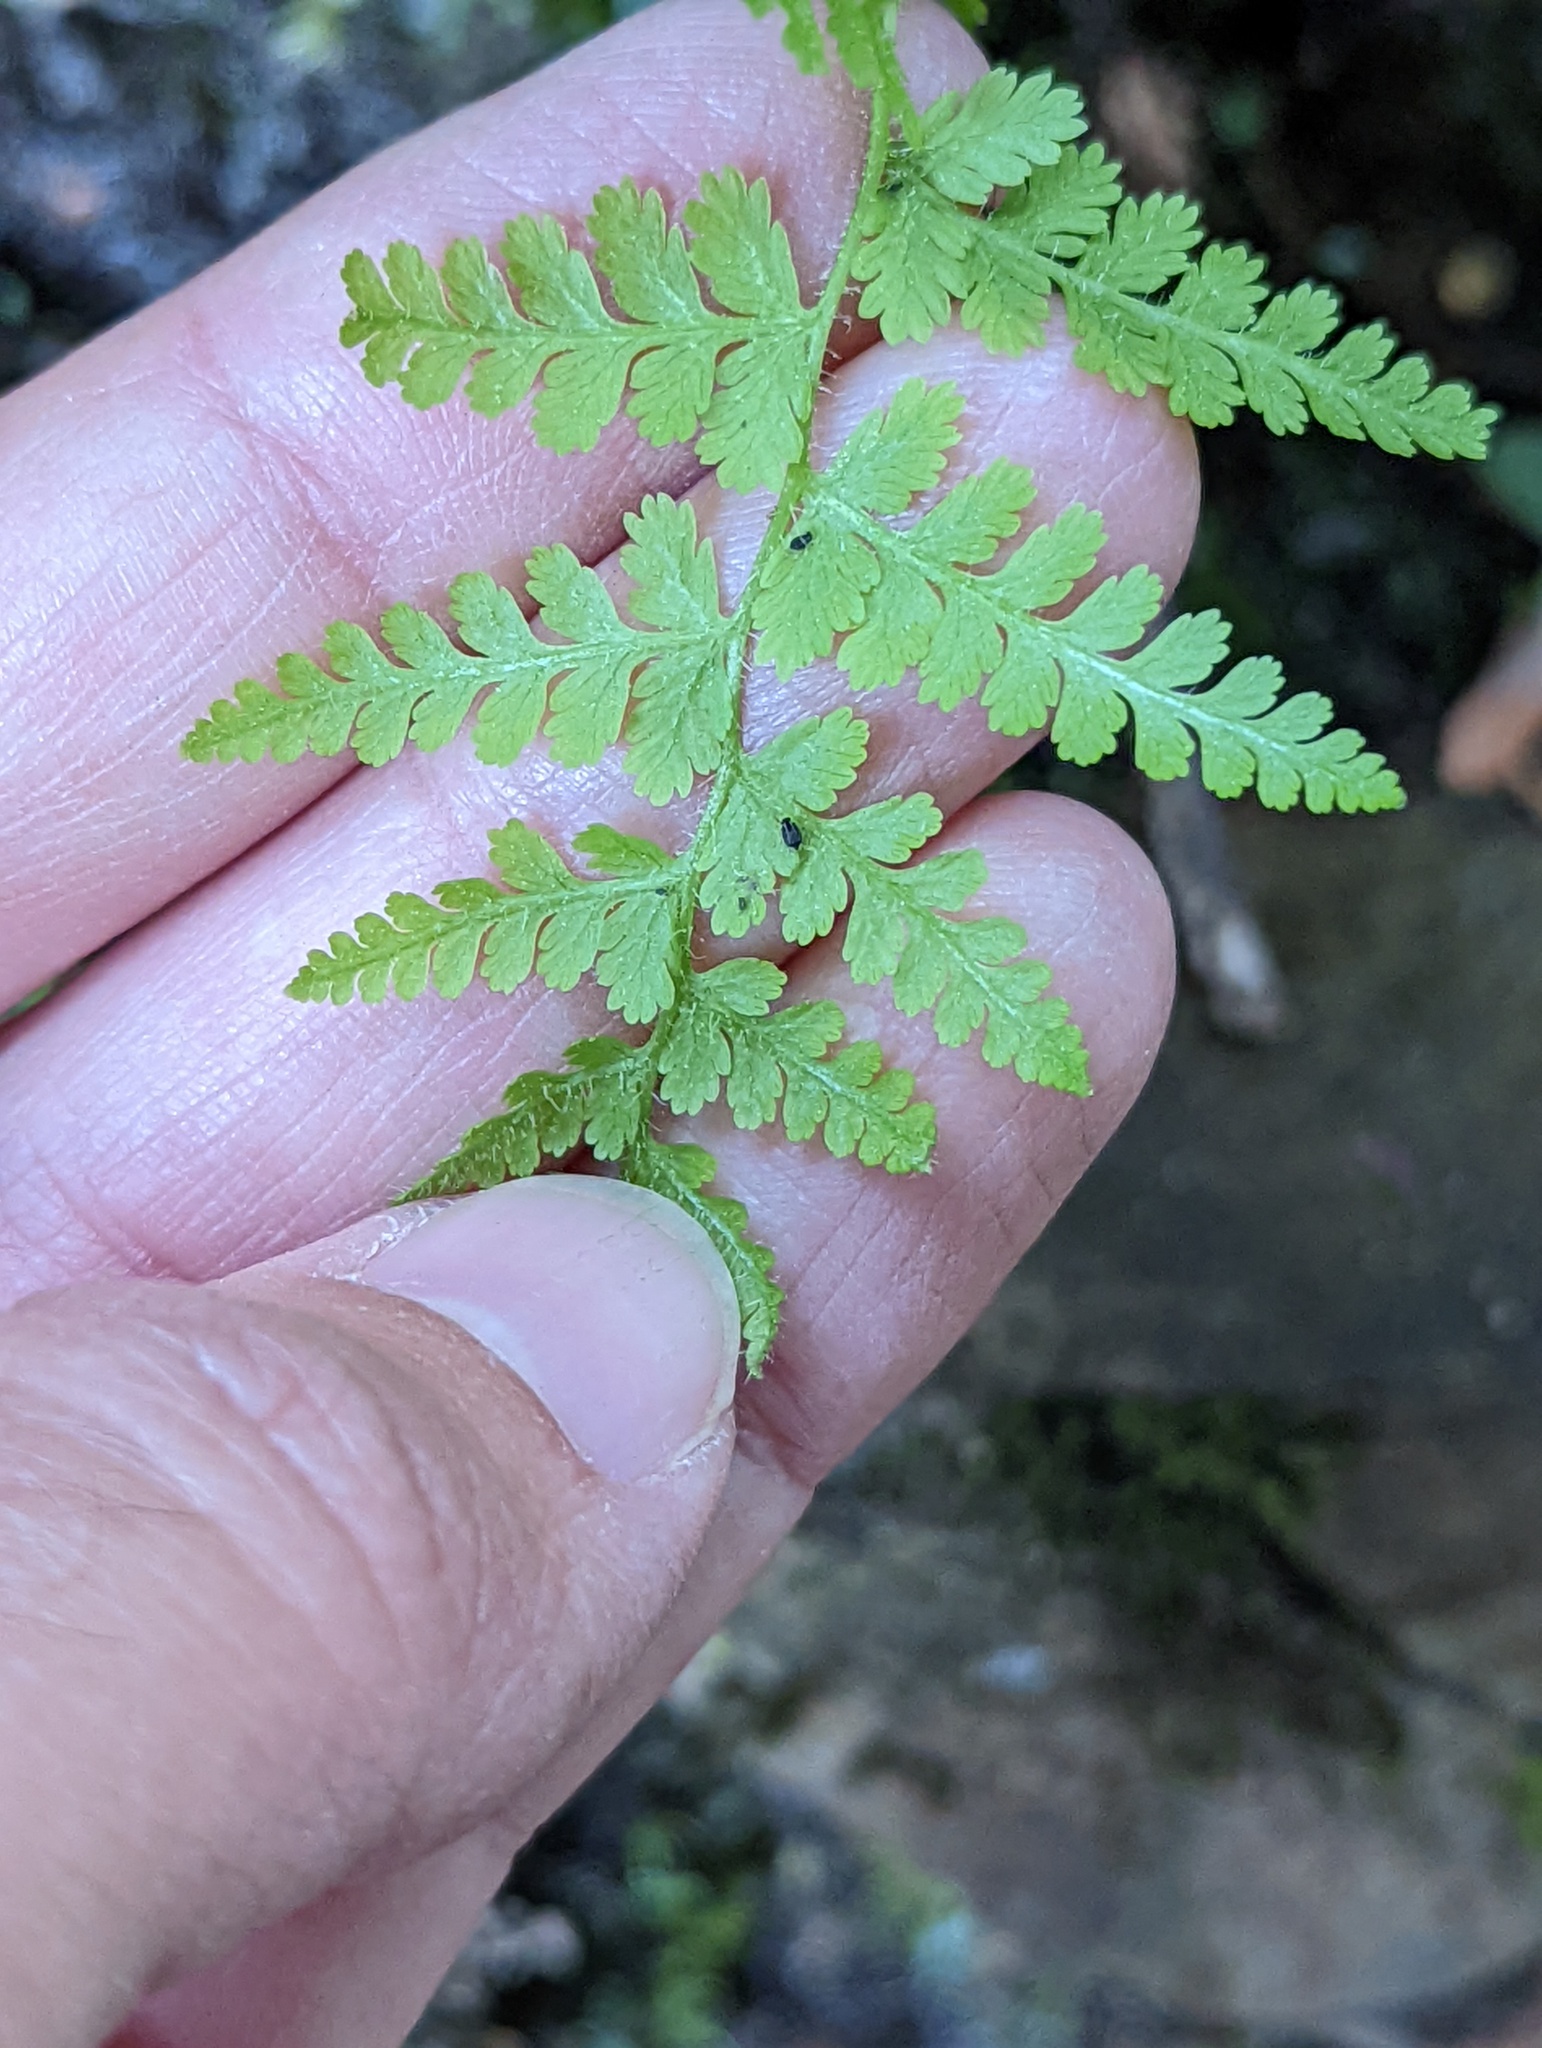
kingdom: Plantae
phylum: Tracheophyta
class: Polypodiopsida
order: Polypodiales
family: Dennstaedtiaceae
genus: Sitobolium
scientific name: Sitobolium punctilobum
